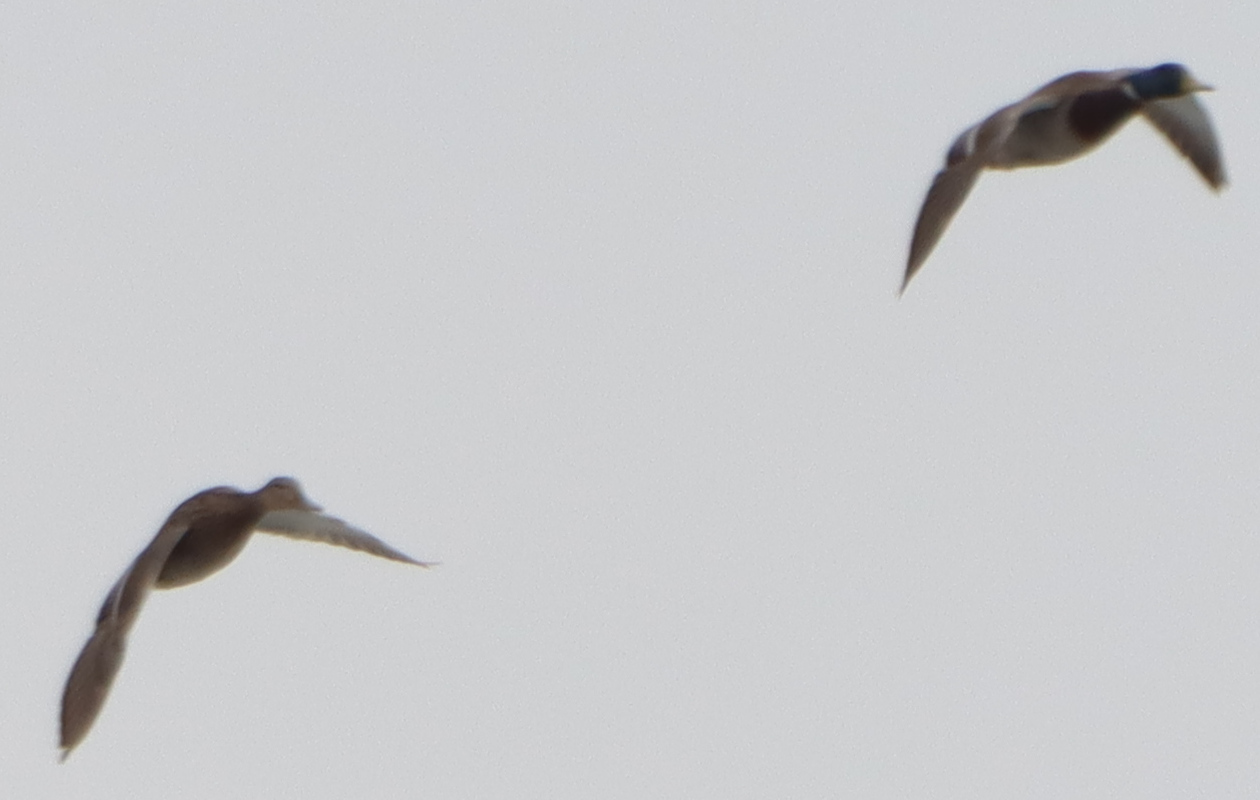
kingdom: Animalia
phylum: Chordata
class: Aves
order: Anseriformes
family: Anatidae
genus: Anas
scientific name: Anas platyrhynchos
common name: Mallard
